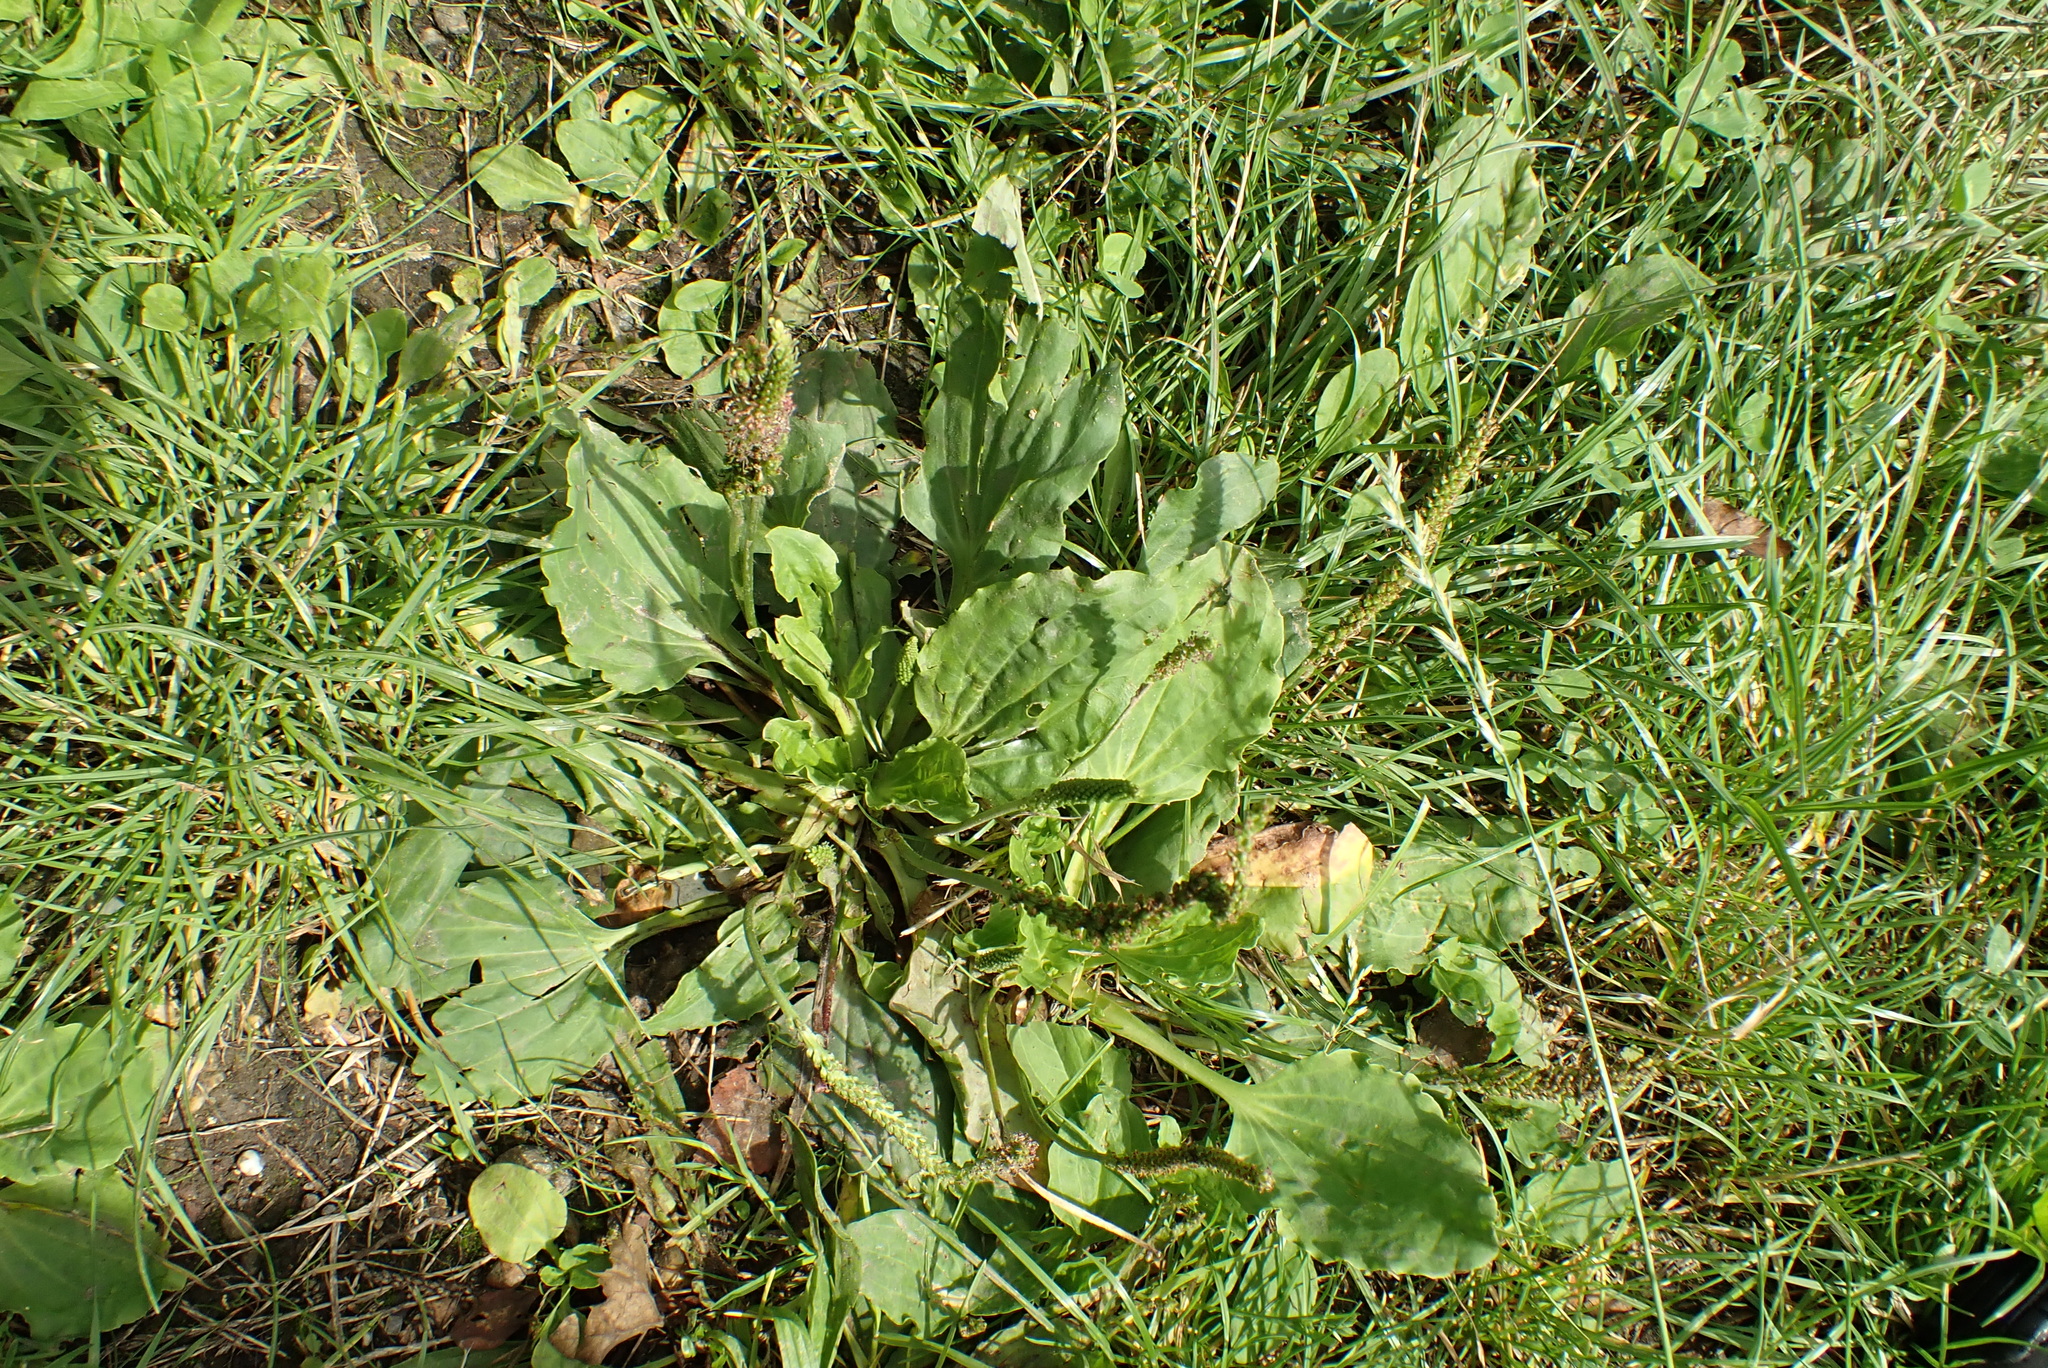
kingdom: Plantae
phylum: Tracheophyta
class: Magnoliopsida
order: Lamiales
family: Plantaginaceae
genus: Plantago
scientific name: Plantago major
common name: Common plantain
